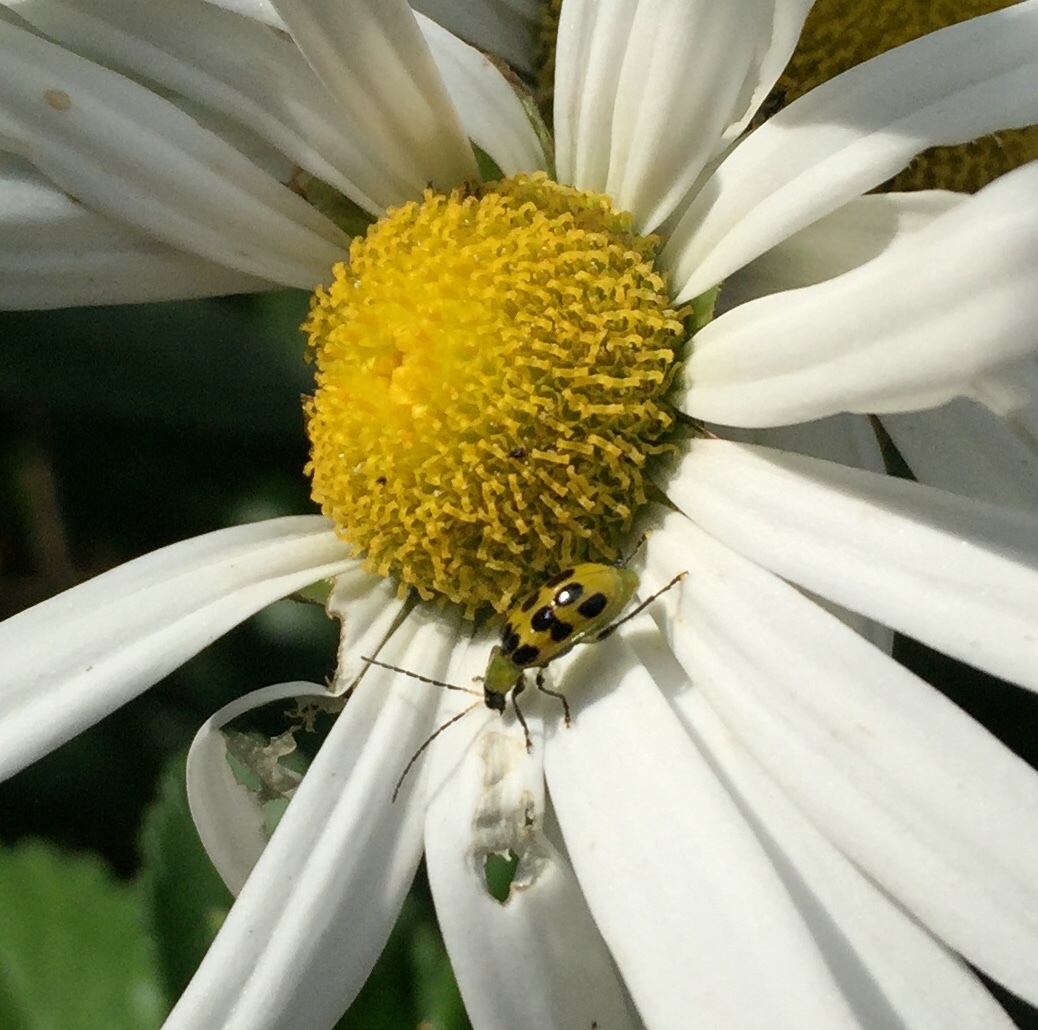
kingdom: Animalia
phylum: Arthropoda
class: Insecta
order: Coleoptera
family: Chrysomelidae
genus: Diabrotica
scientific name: Diabrotica undecimpunctata
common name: Spotted cucumber beetle
